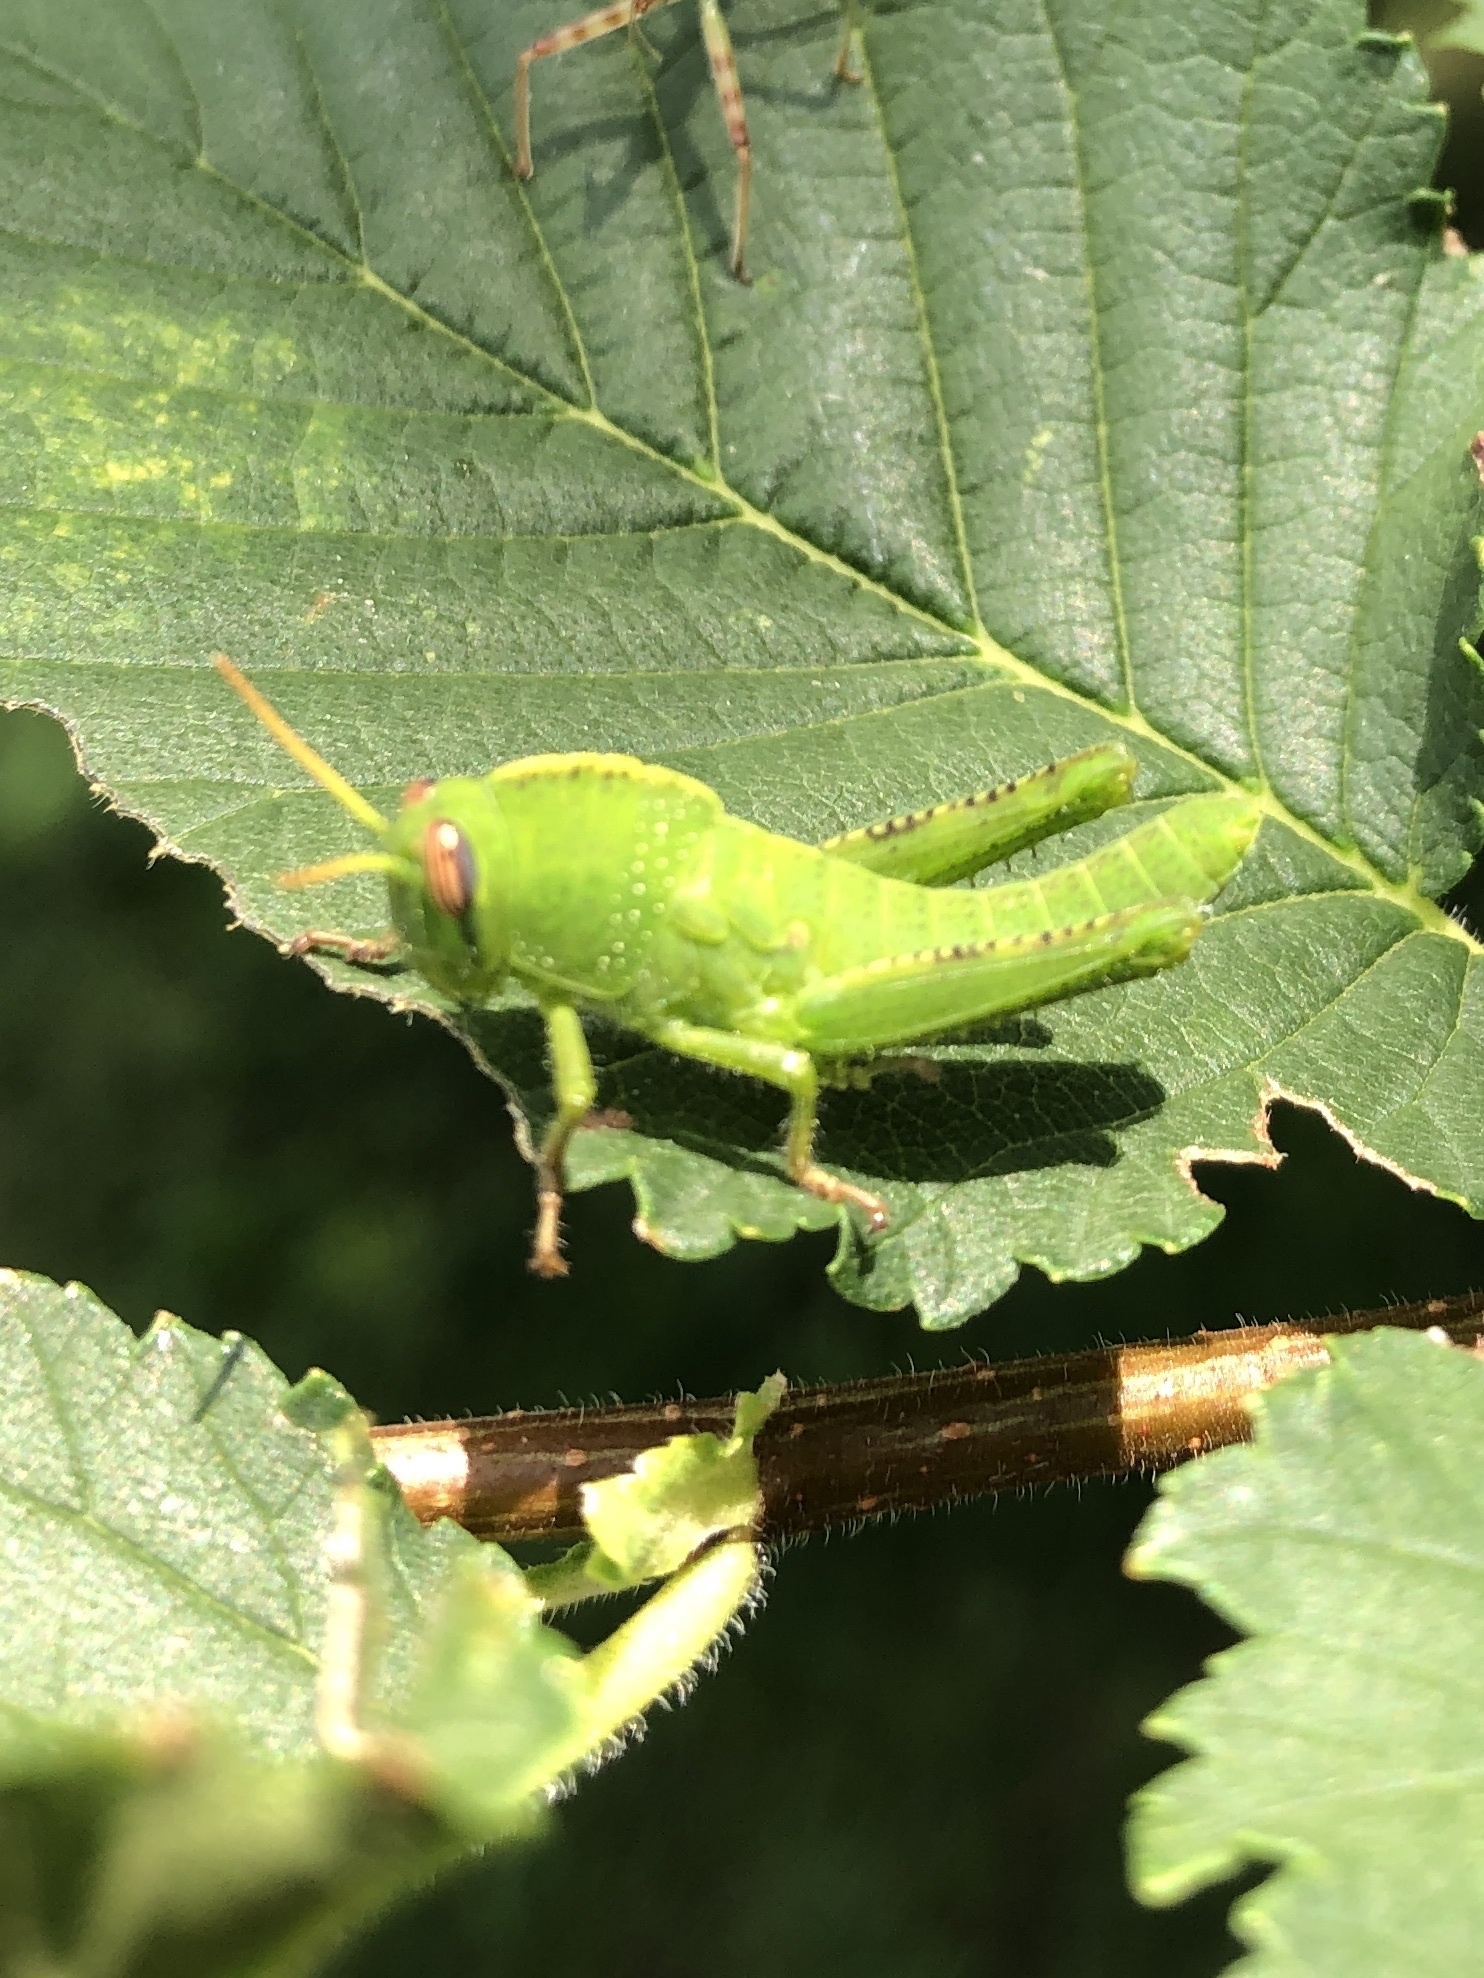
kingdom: Animalia
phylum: Arthropoda
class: Insecta
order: Orthoptera
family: Acrididae
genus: Anacridium
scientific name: Anacridium aegyptium
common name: Egyptian grasshopper
